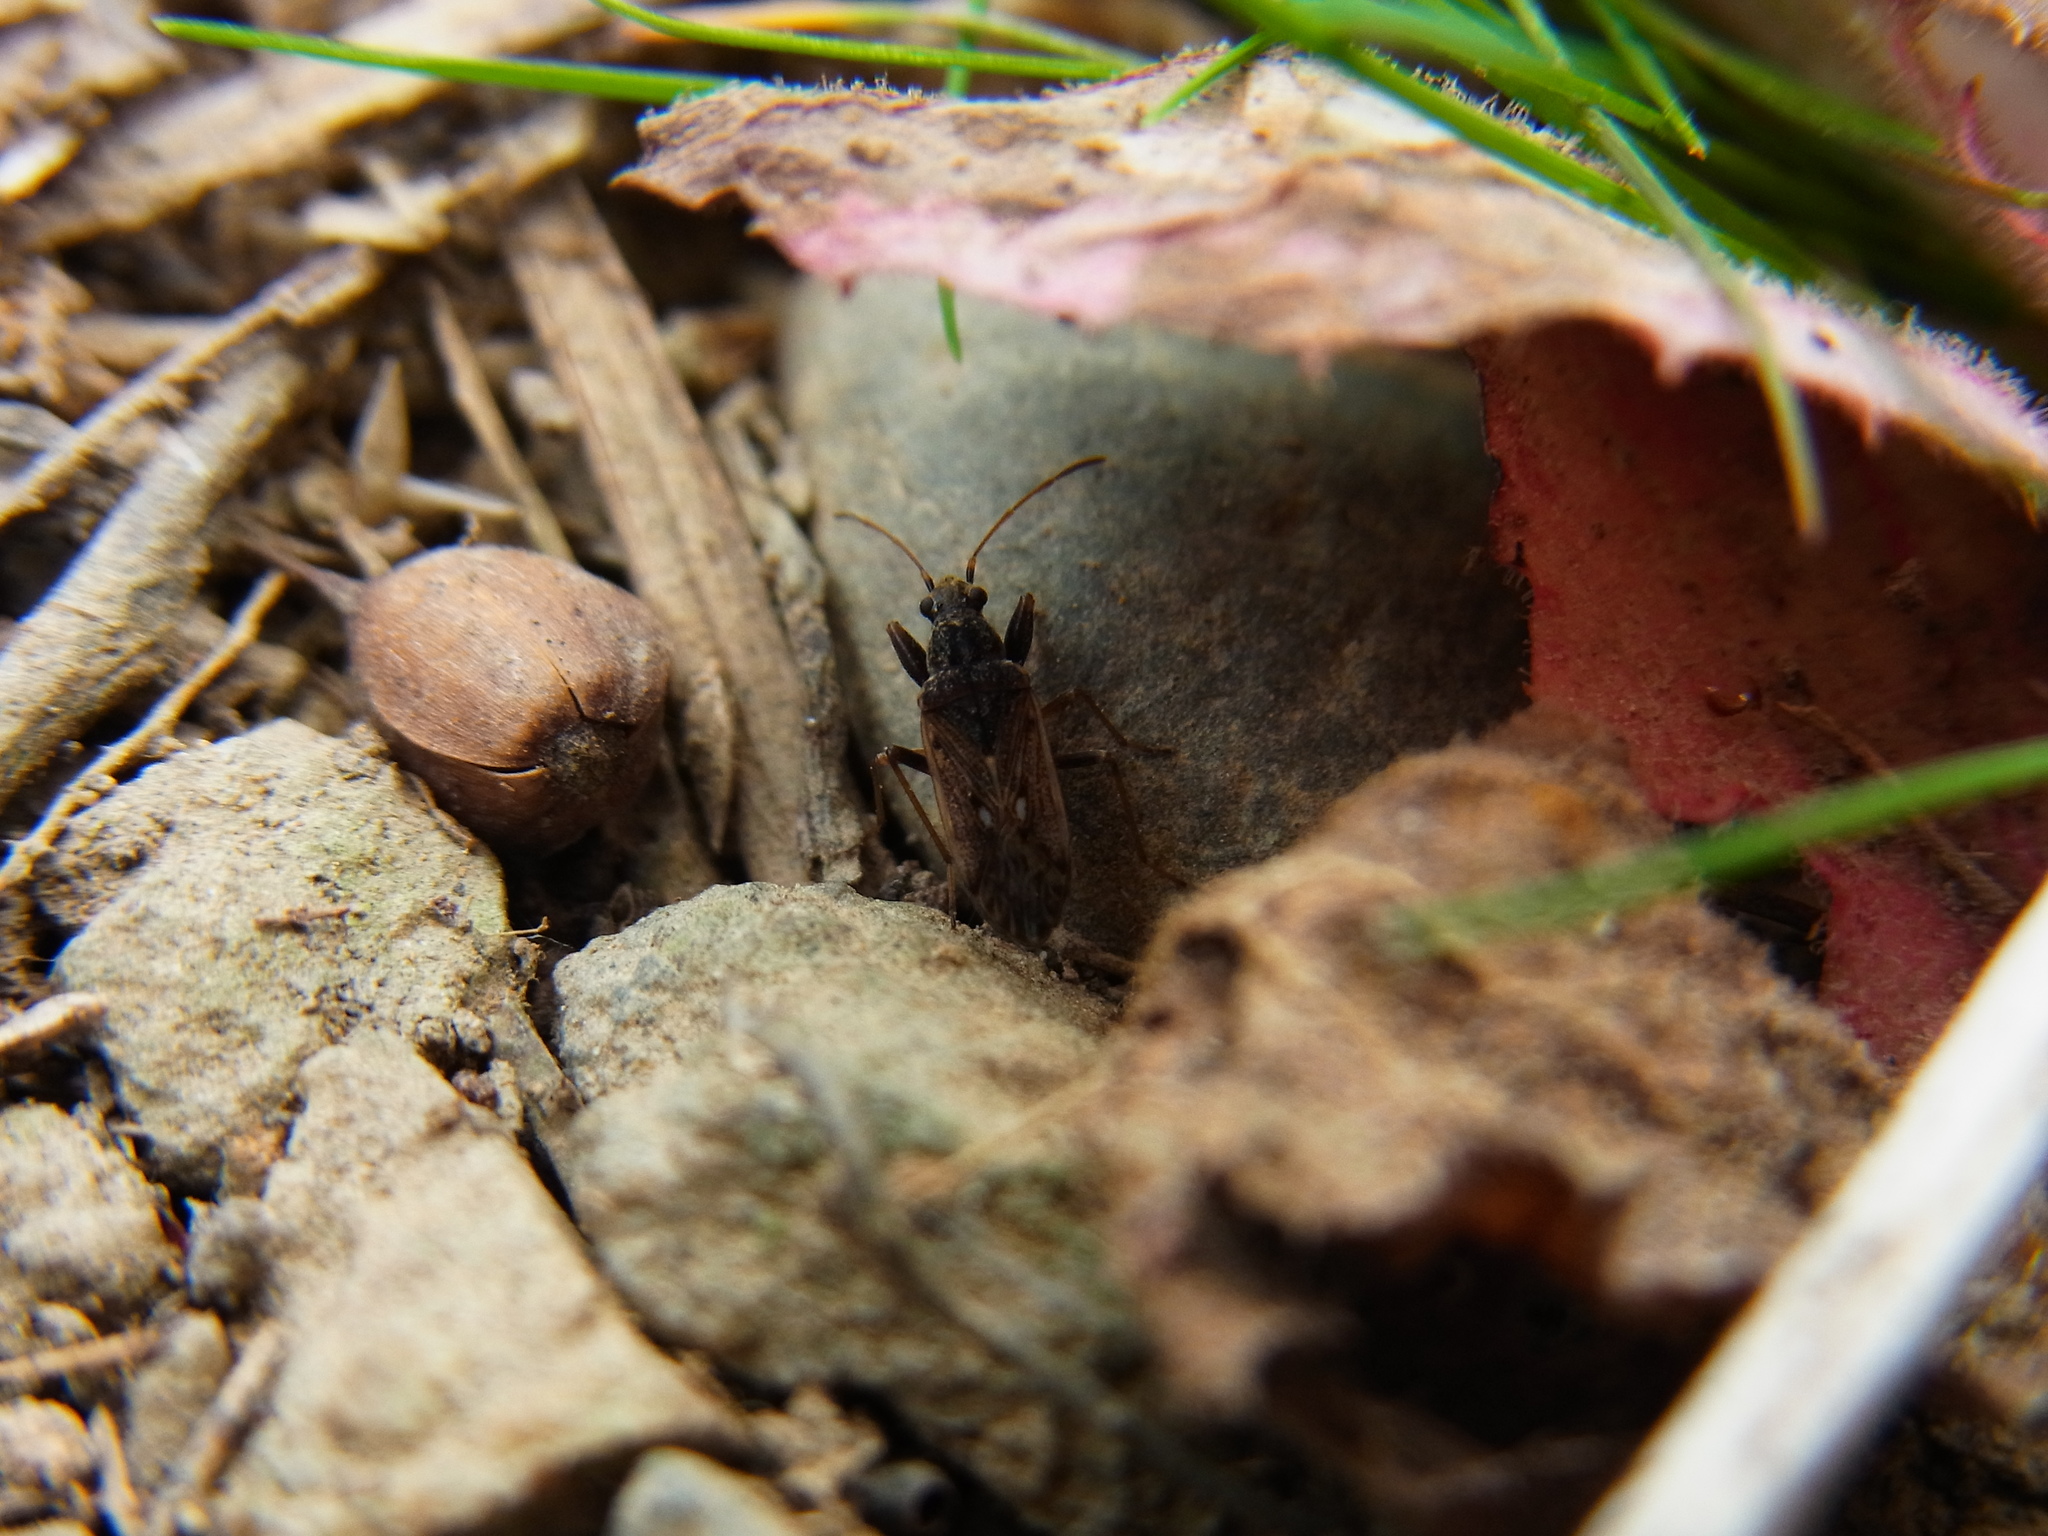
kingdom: Animalia
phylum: Arthropoda
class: Insecta
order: Hemiptera
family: Rhyparochromidae
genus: Horridipamera
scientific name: Horridipamera inconspicuus
